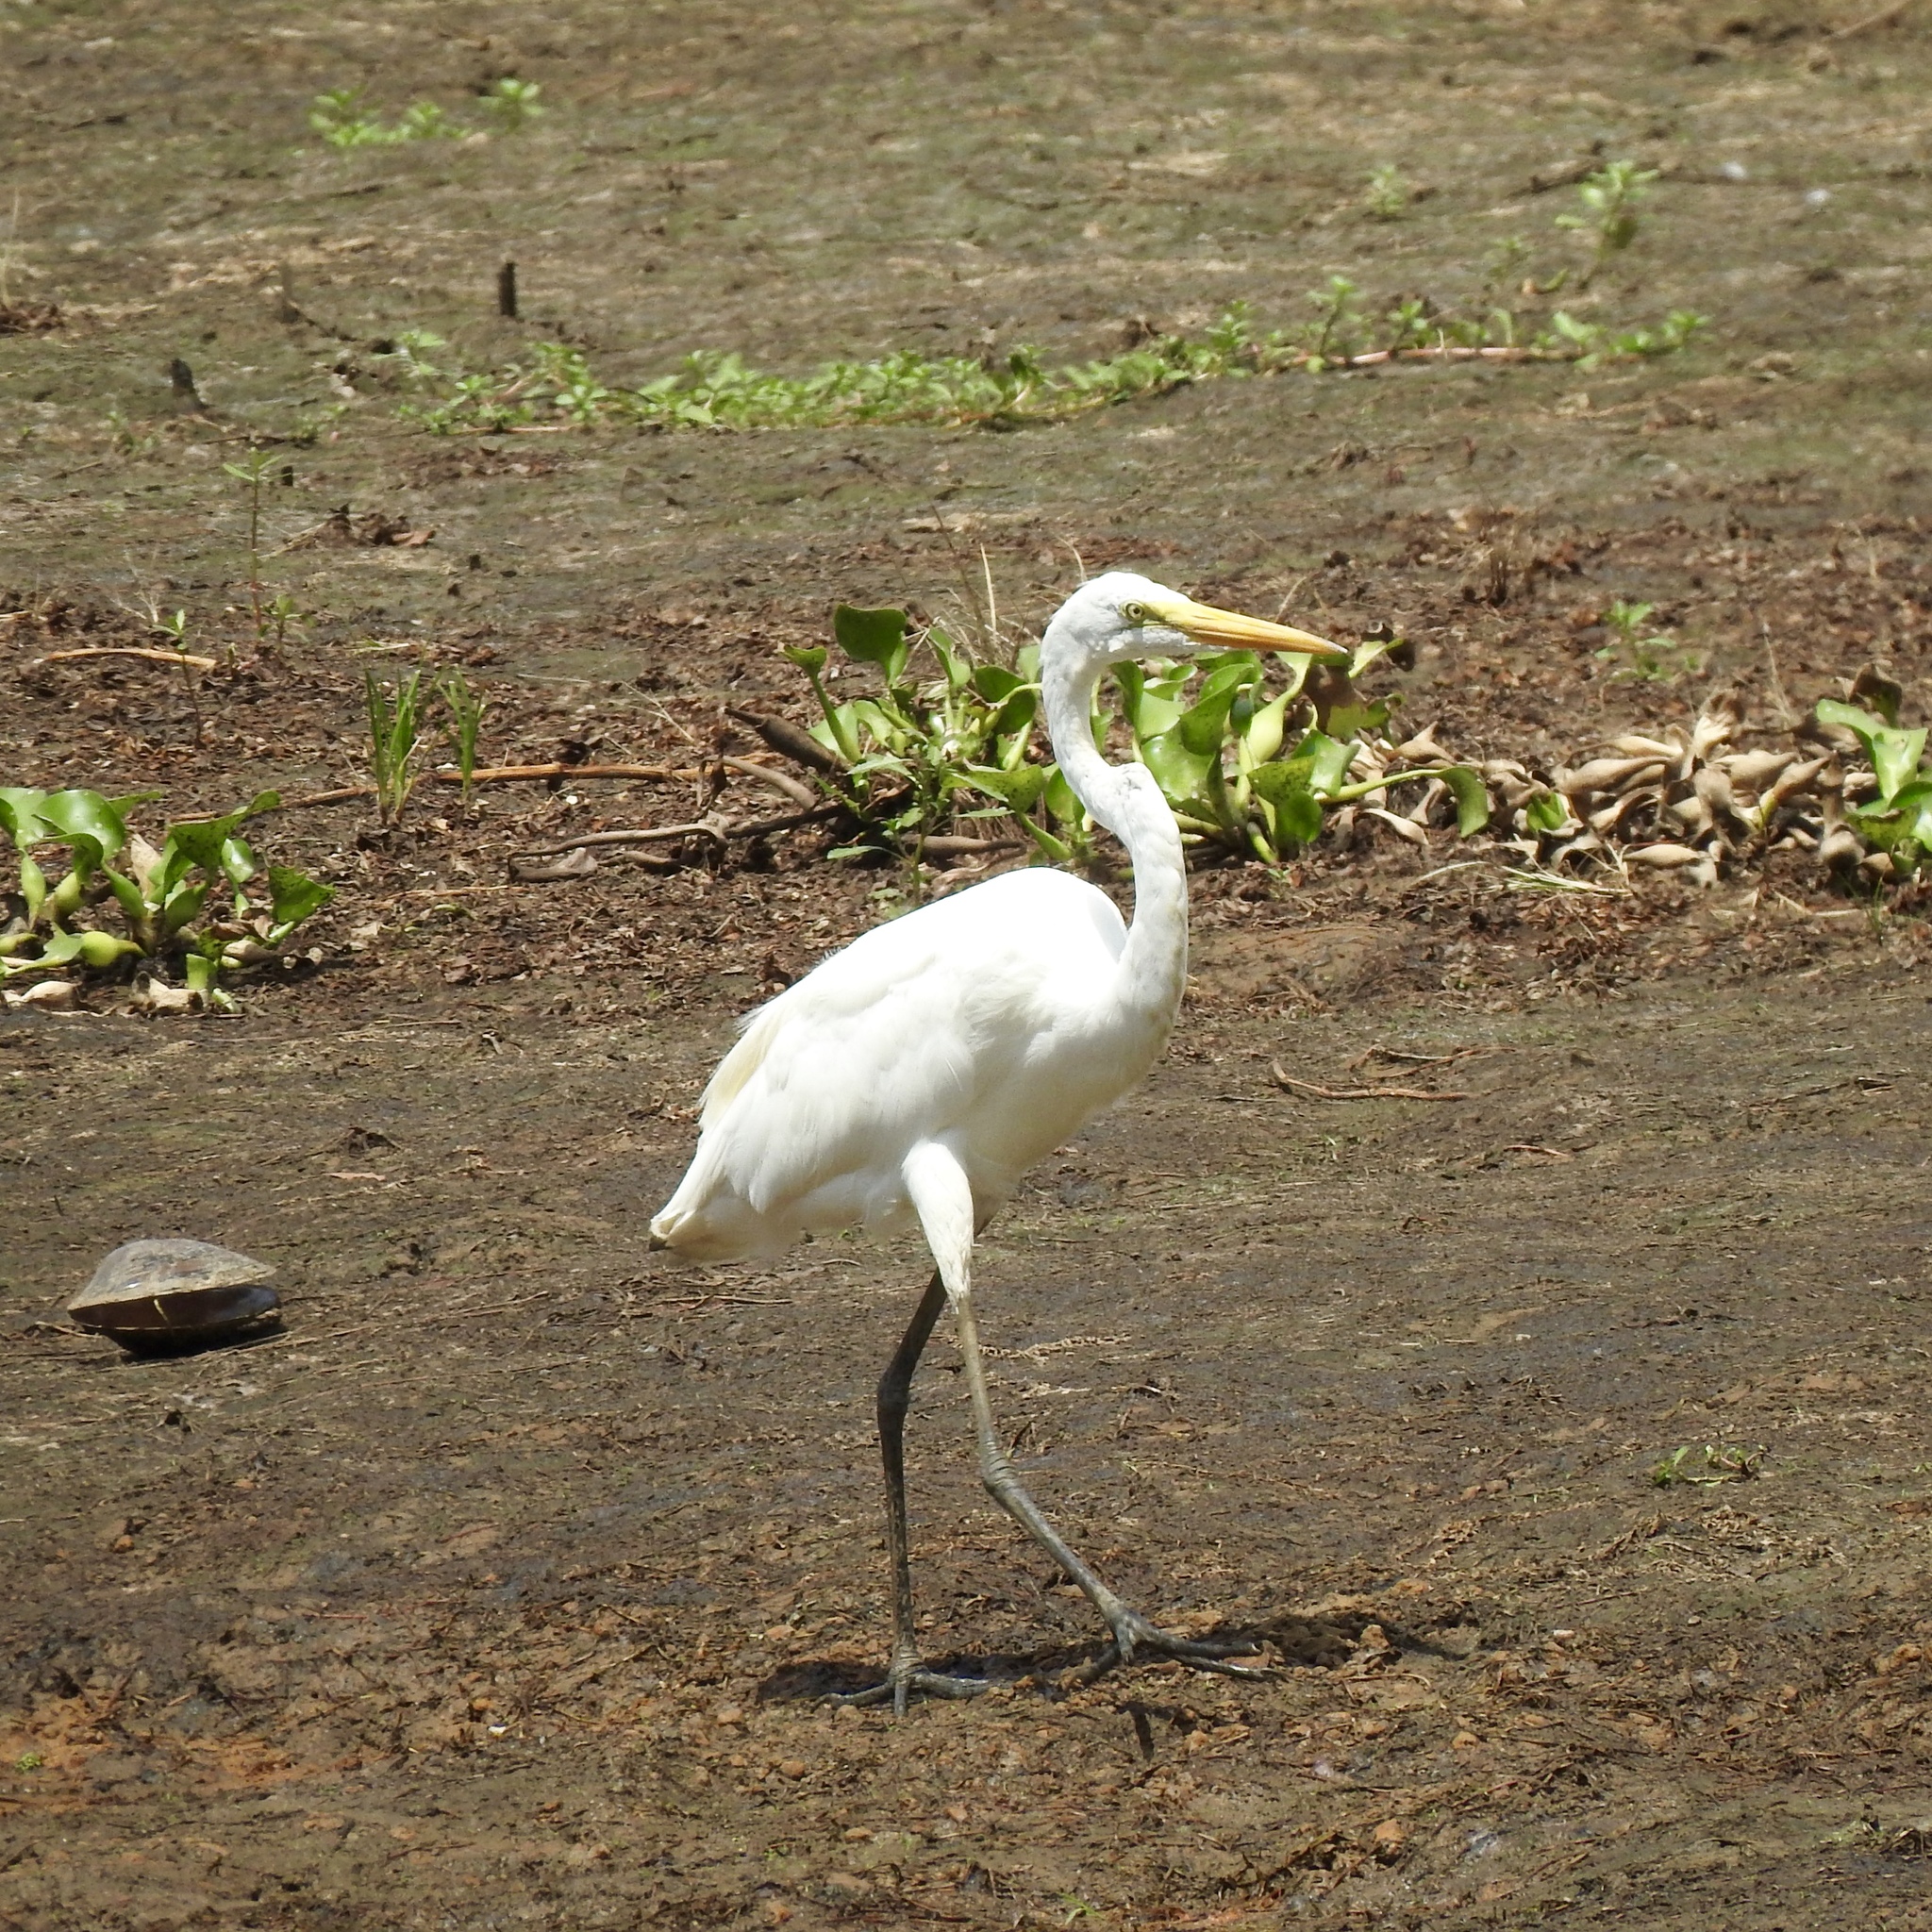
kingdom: Animalia
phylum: Chordata
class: Aves
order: Pelecaniformes
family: Ardeidae
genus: Ardea
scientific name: Ardea alba
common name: Great egret
